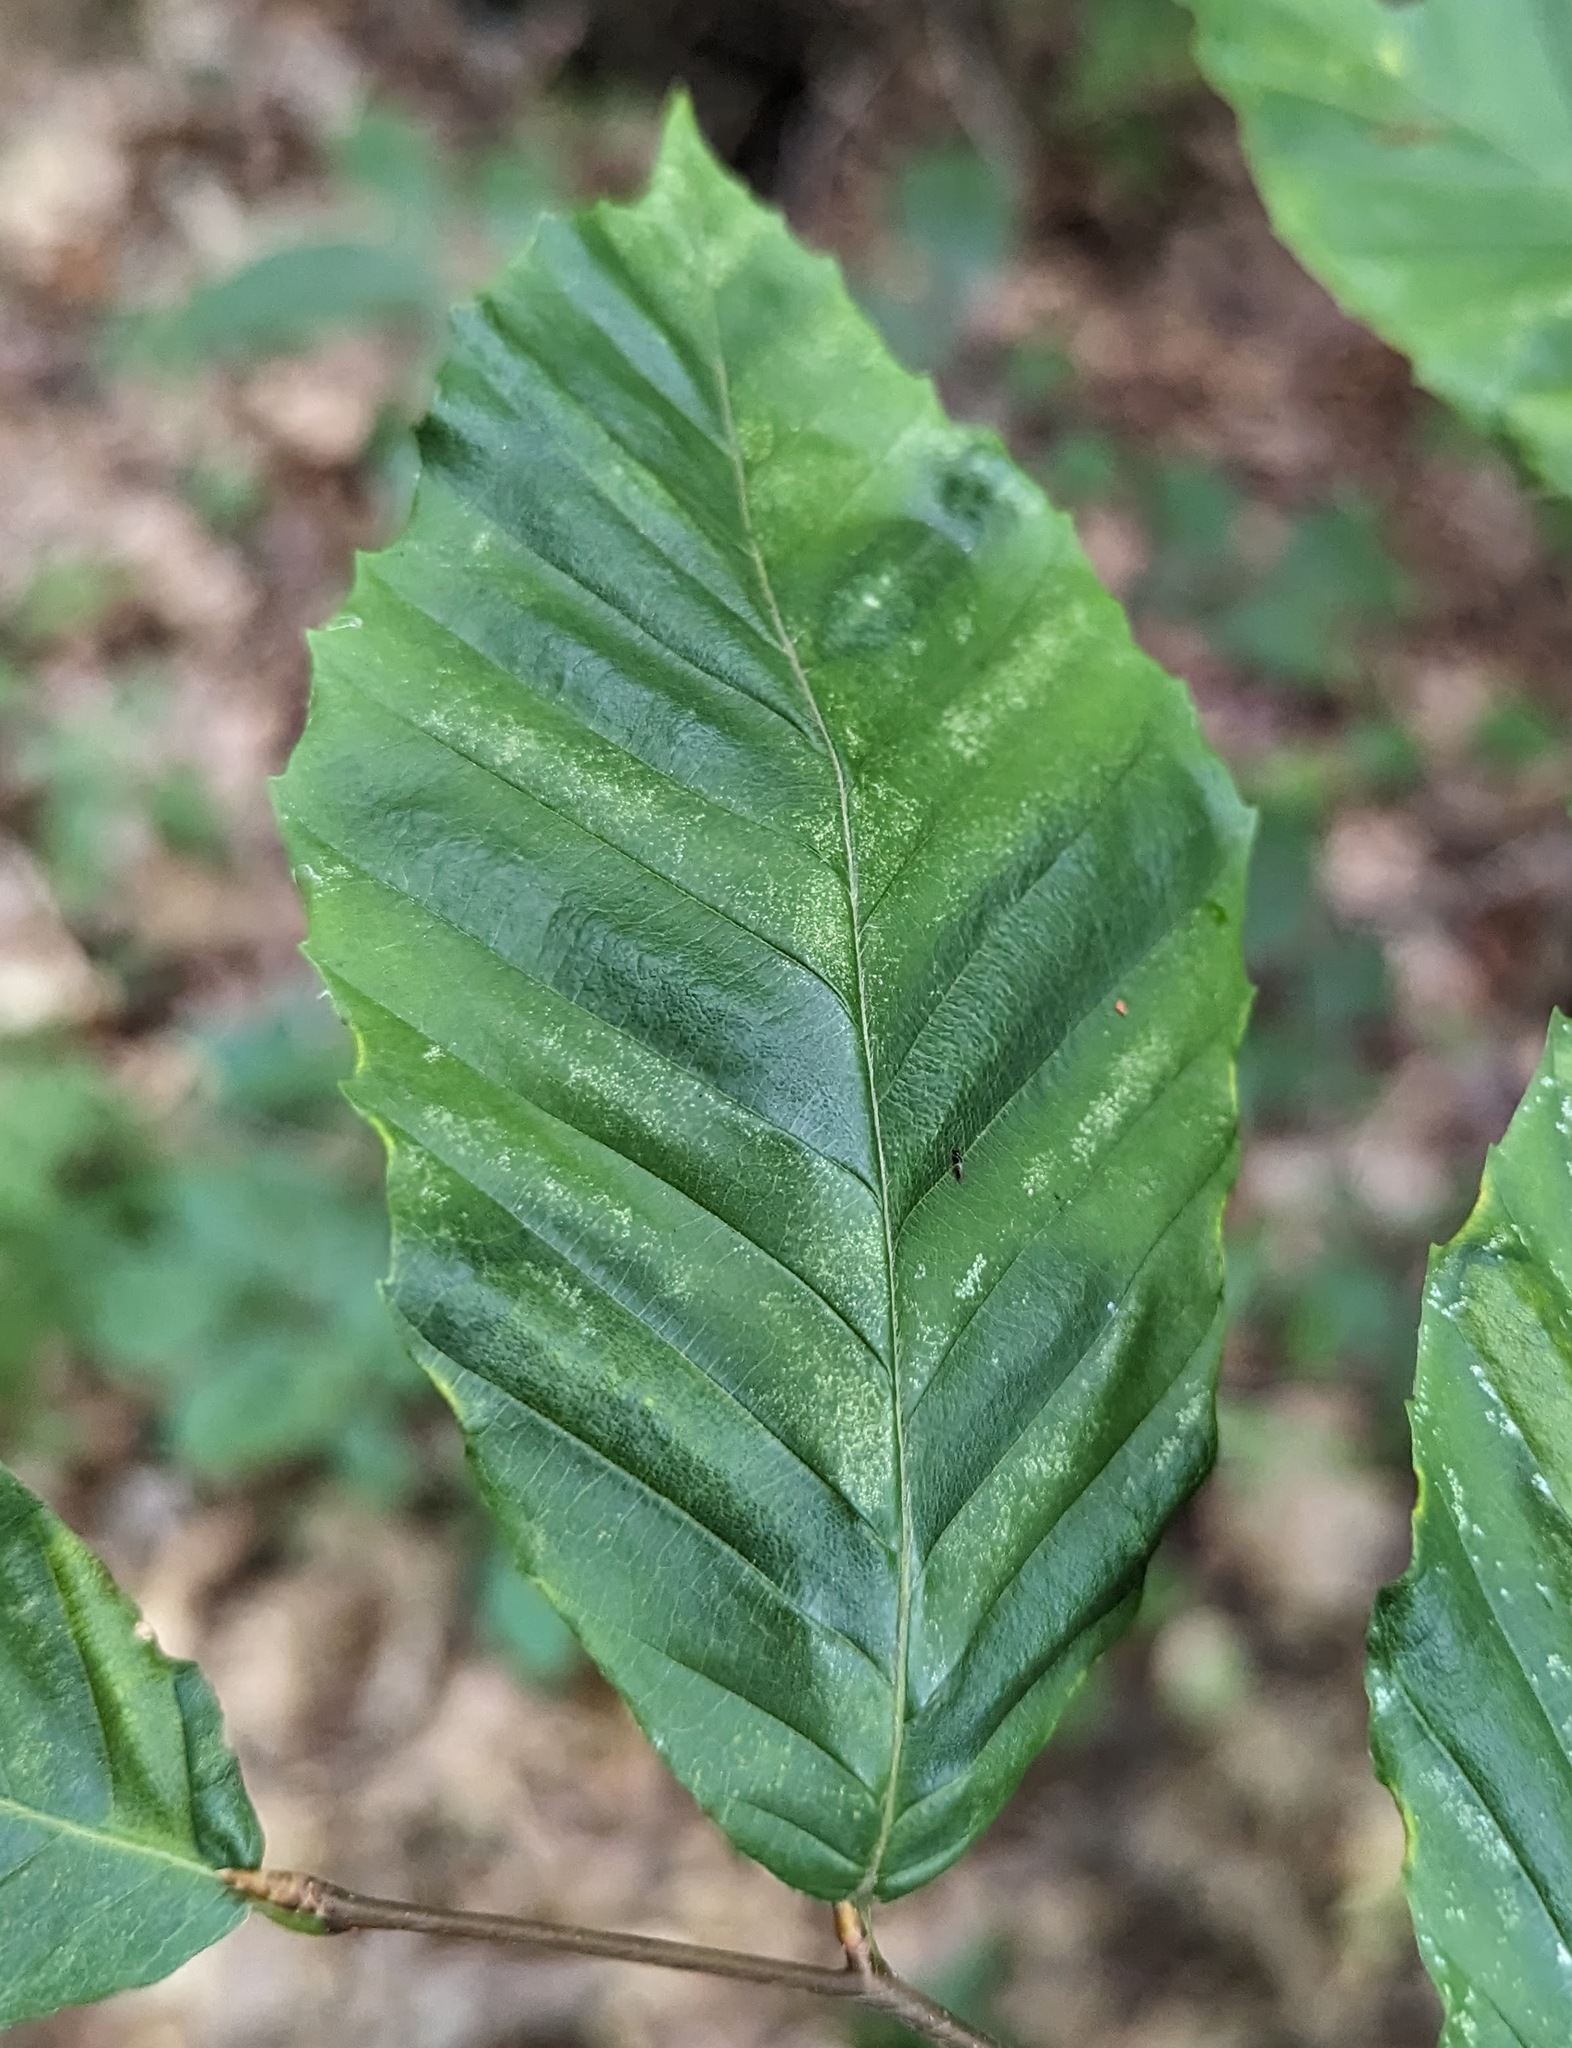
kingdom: Animalia
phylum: Nematoda
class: Chromadorea
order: Rhabditida
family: Anguinidae
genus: Litylenchus
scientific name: Litylenchus crenatae
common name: Beech leaf disease
